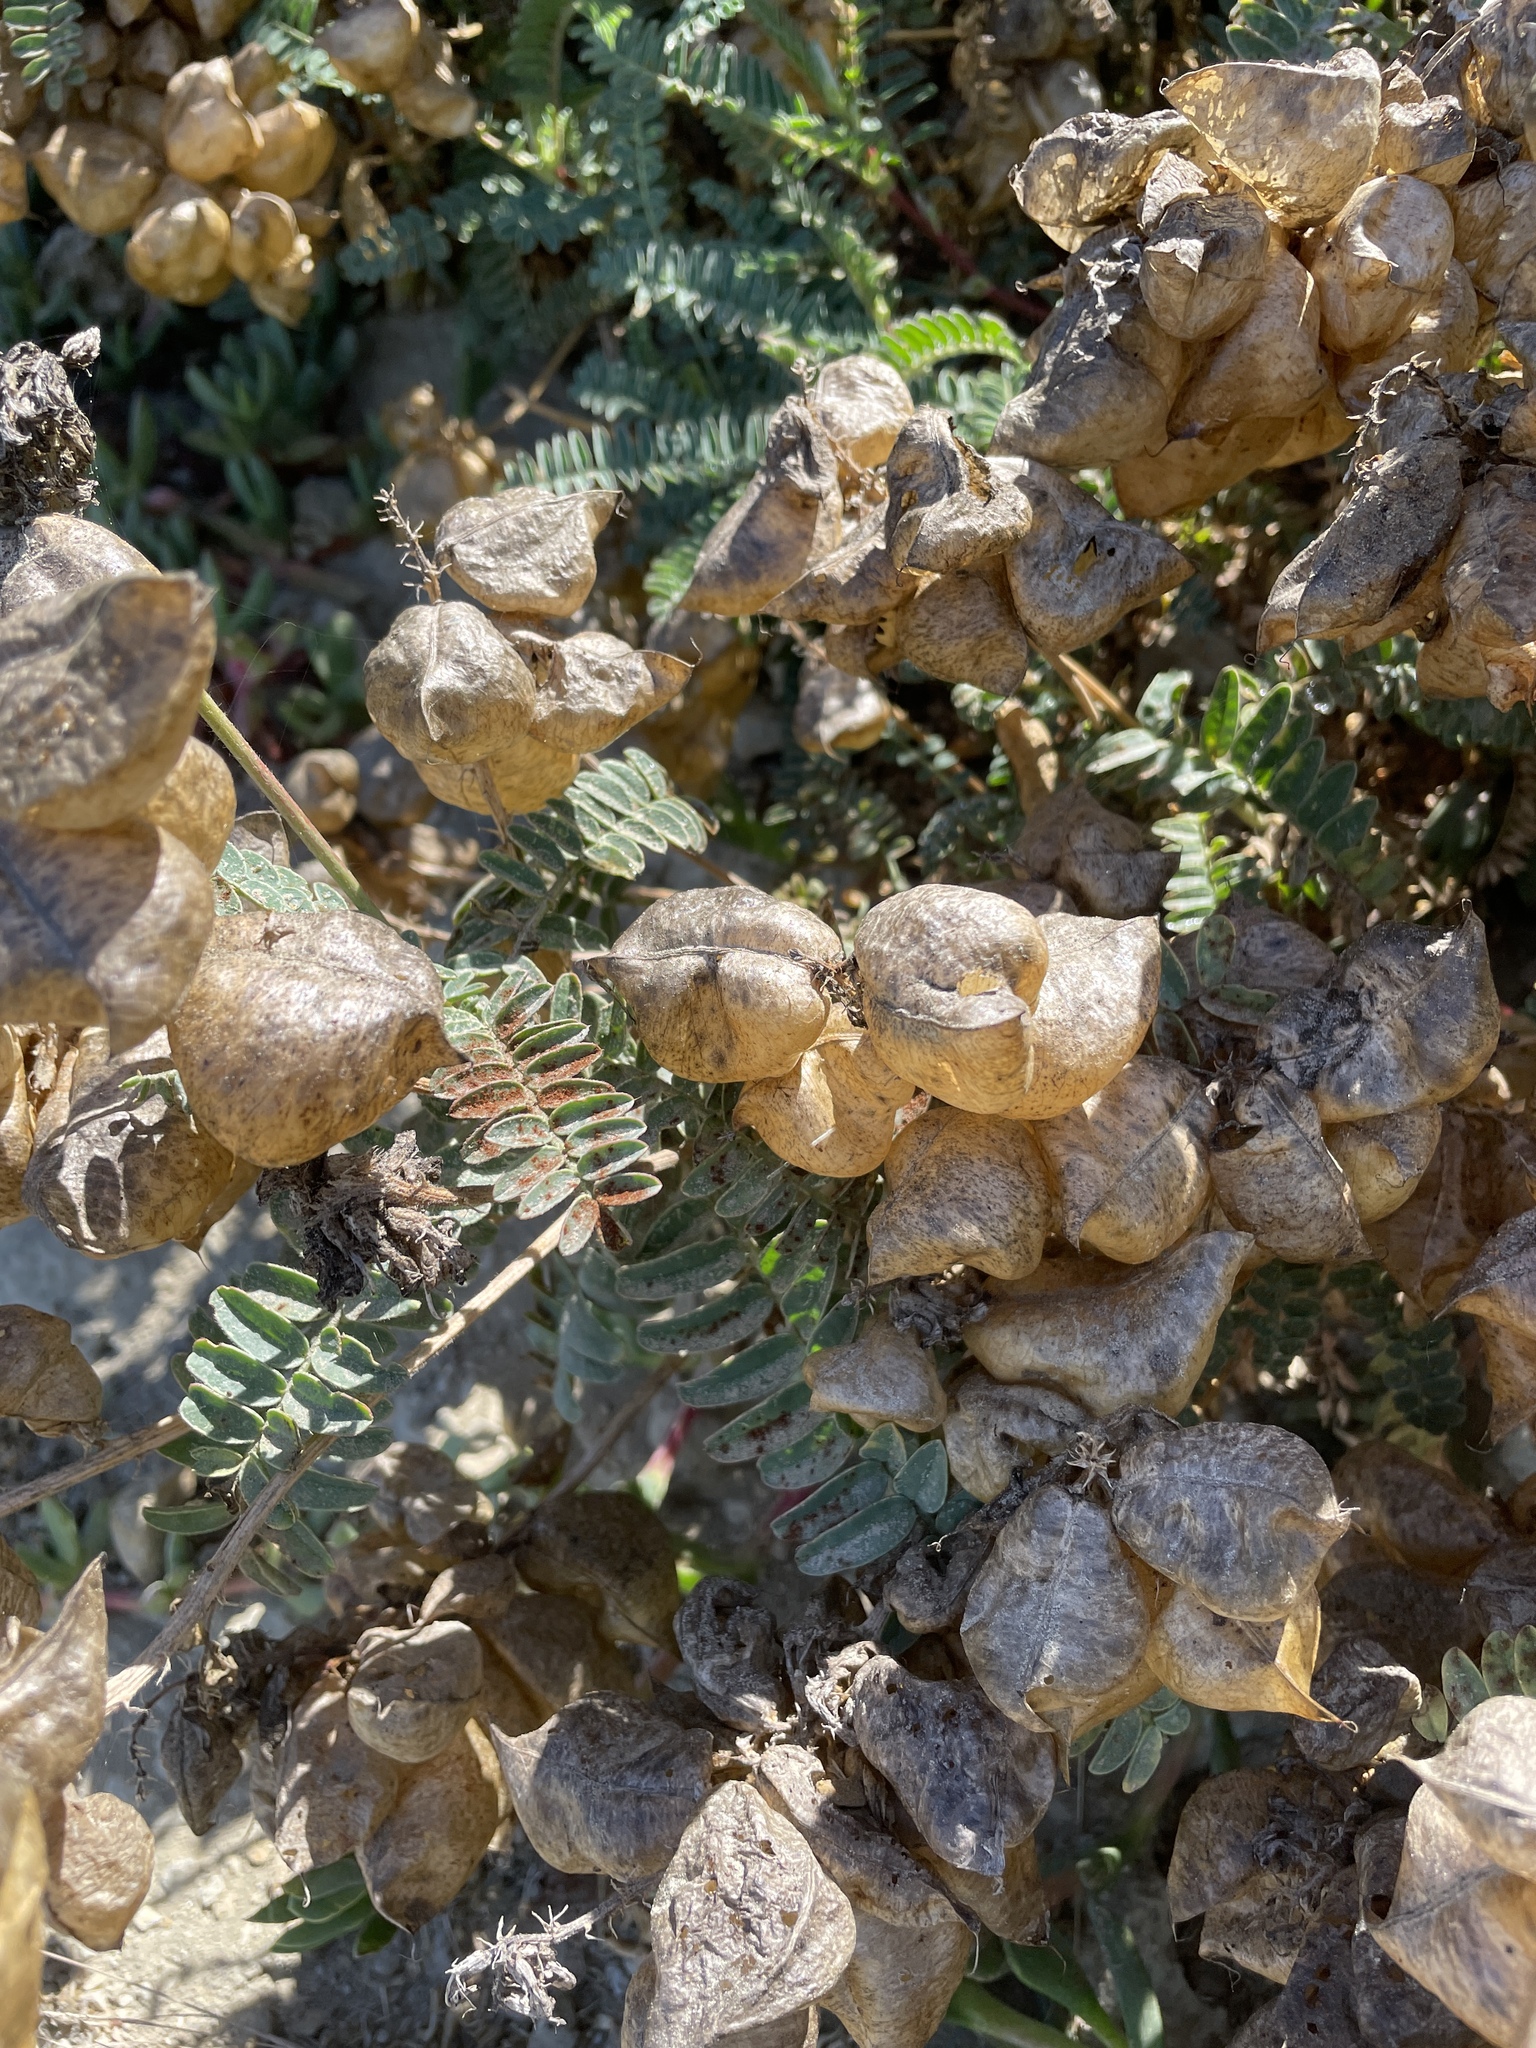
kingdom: Plantae
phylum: Tracheophyta
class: Magnoliopsida
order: Fabales
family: Fabaceae
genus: Astragalus
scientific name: Astragalus nuttallii
